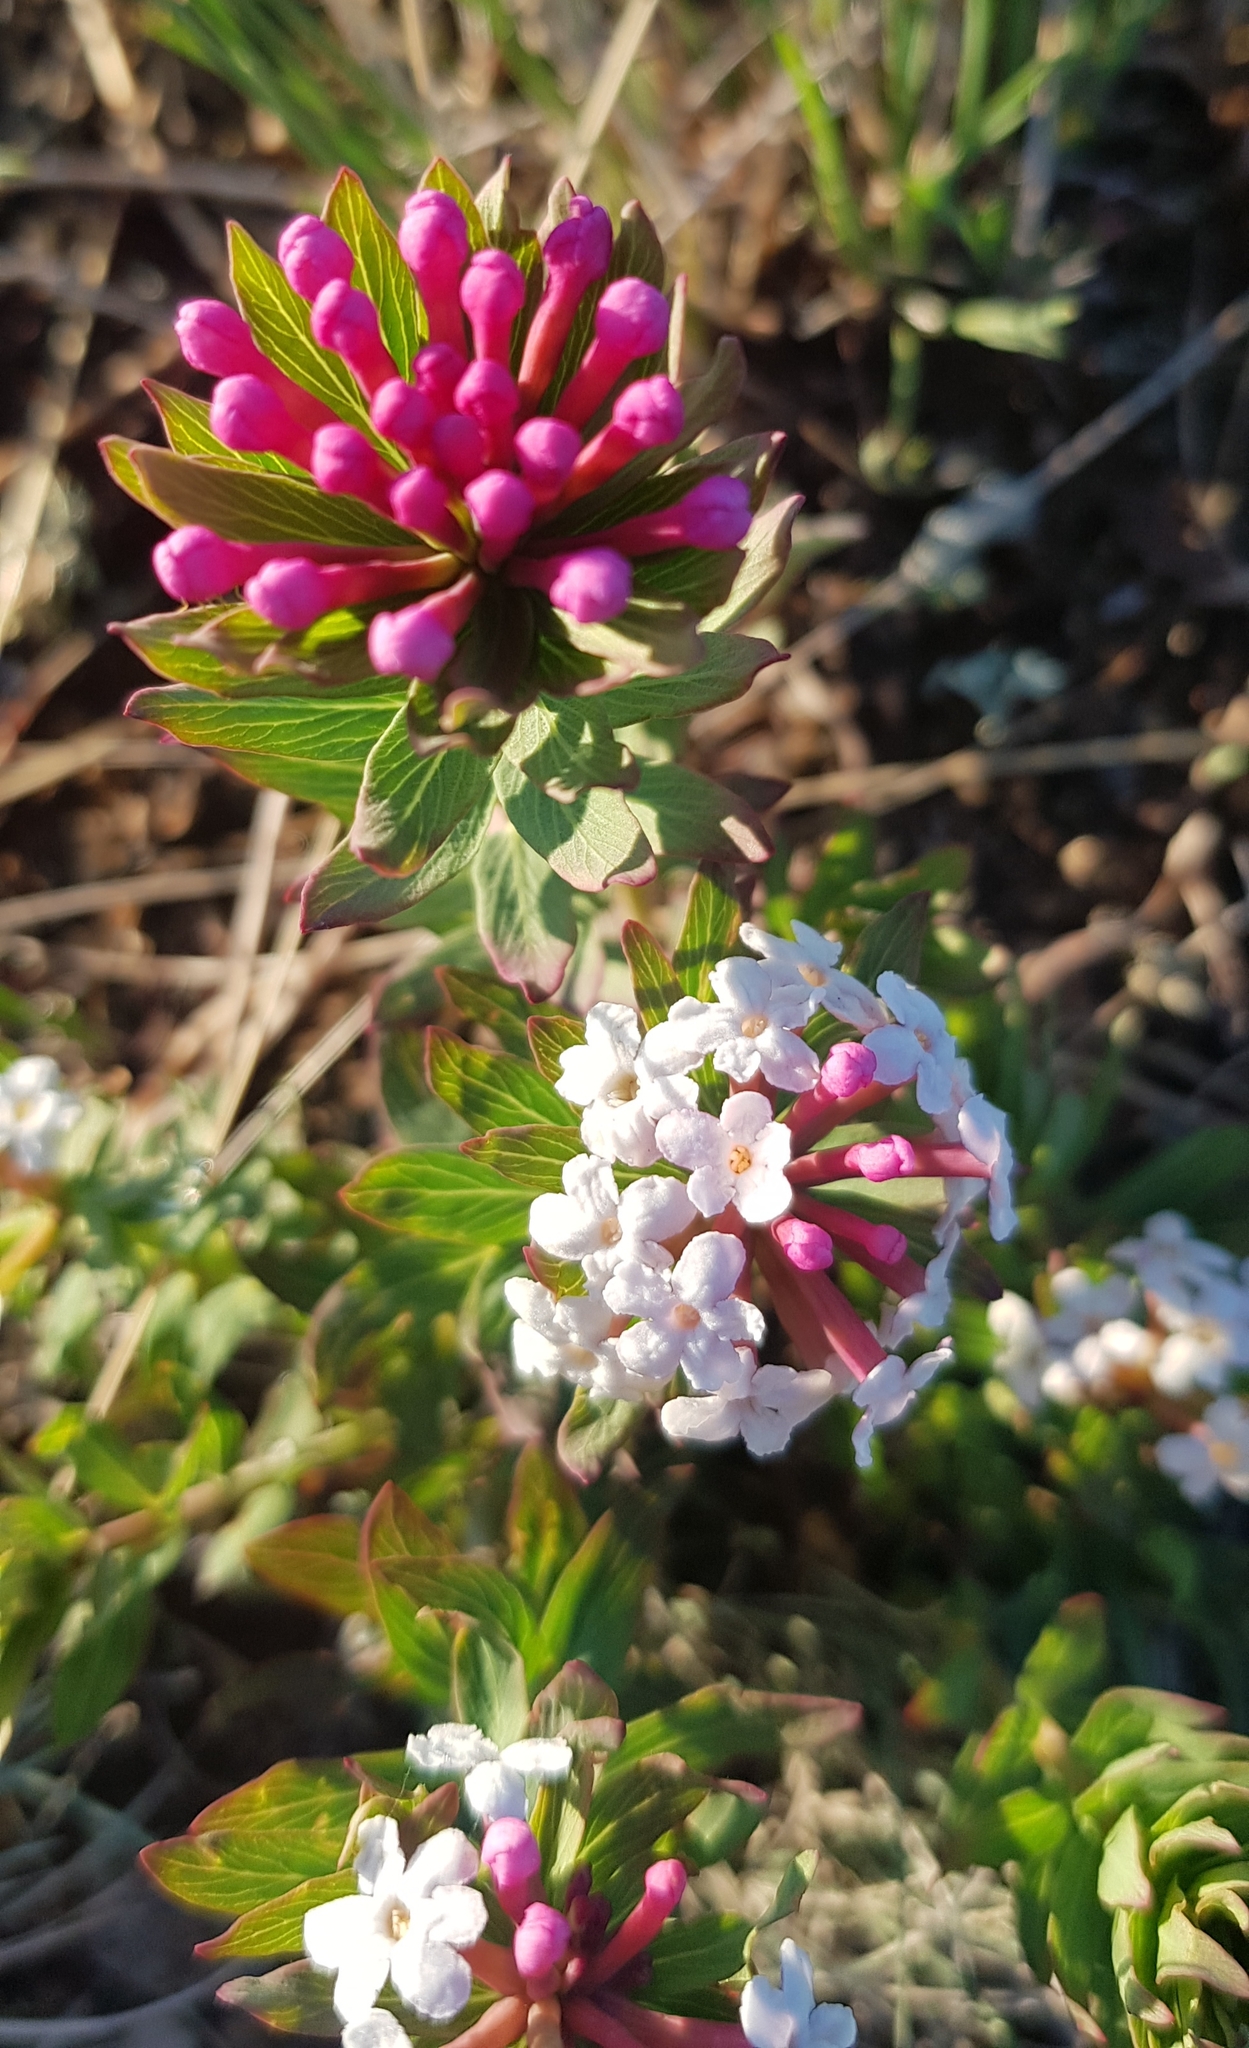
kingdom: Plantae
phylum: Tracheophyta
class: Magnoliopsida
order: Malvales
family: Thymelaeaceae
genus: Stellera
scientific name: Stellera chamaejasme
